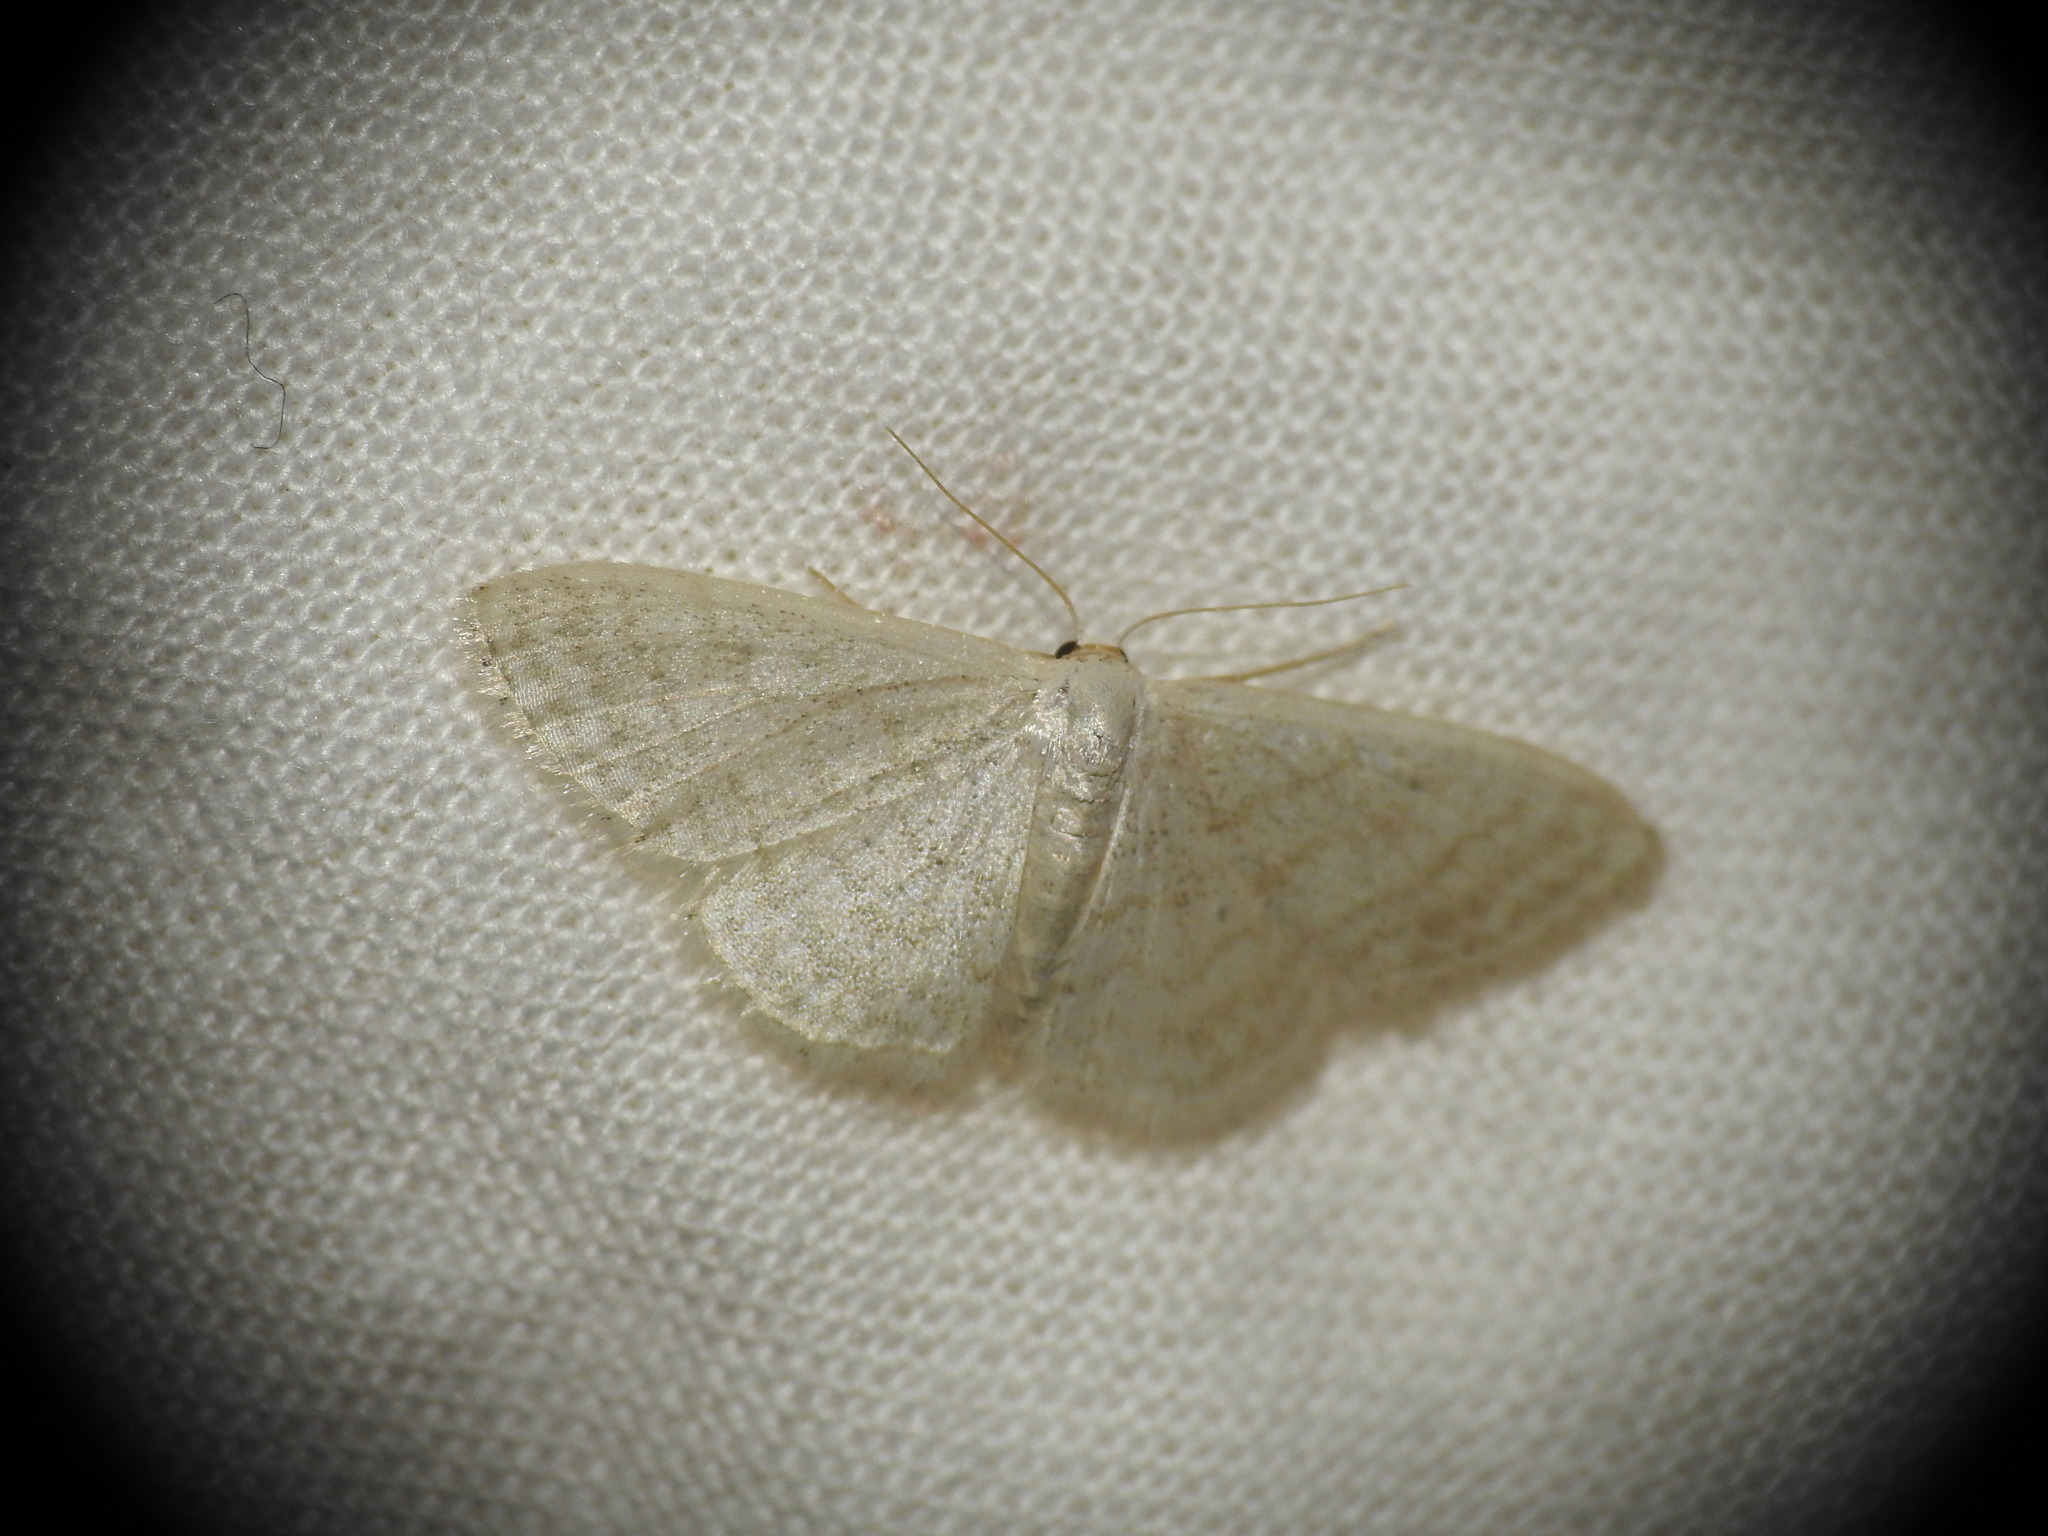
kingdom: Animalia
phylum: Arthropoda
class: Insecta
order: Lepidoptera
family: Geometridae
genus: Idaea
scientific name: Idaea subsericeata
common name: Satin wave
